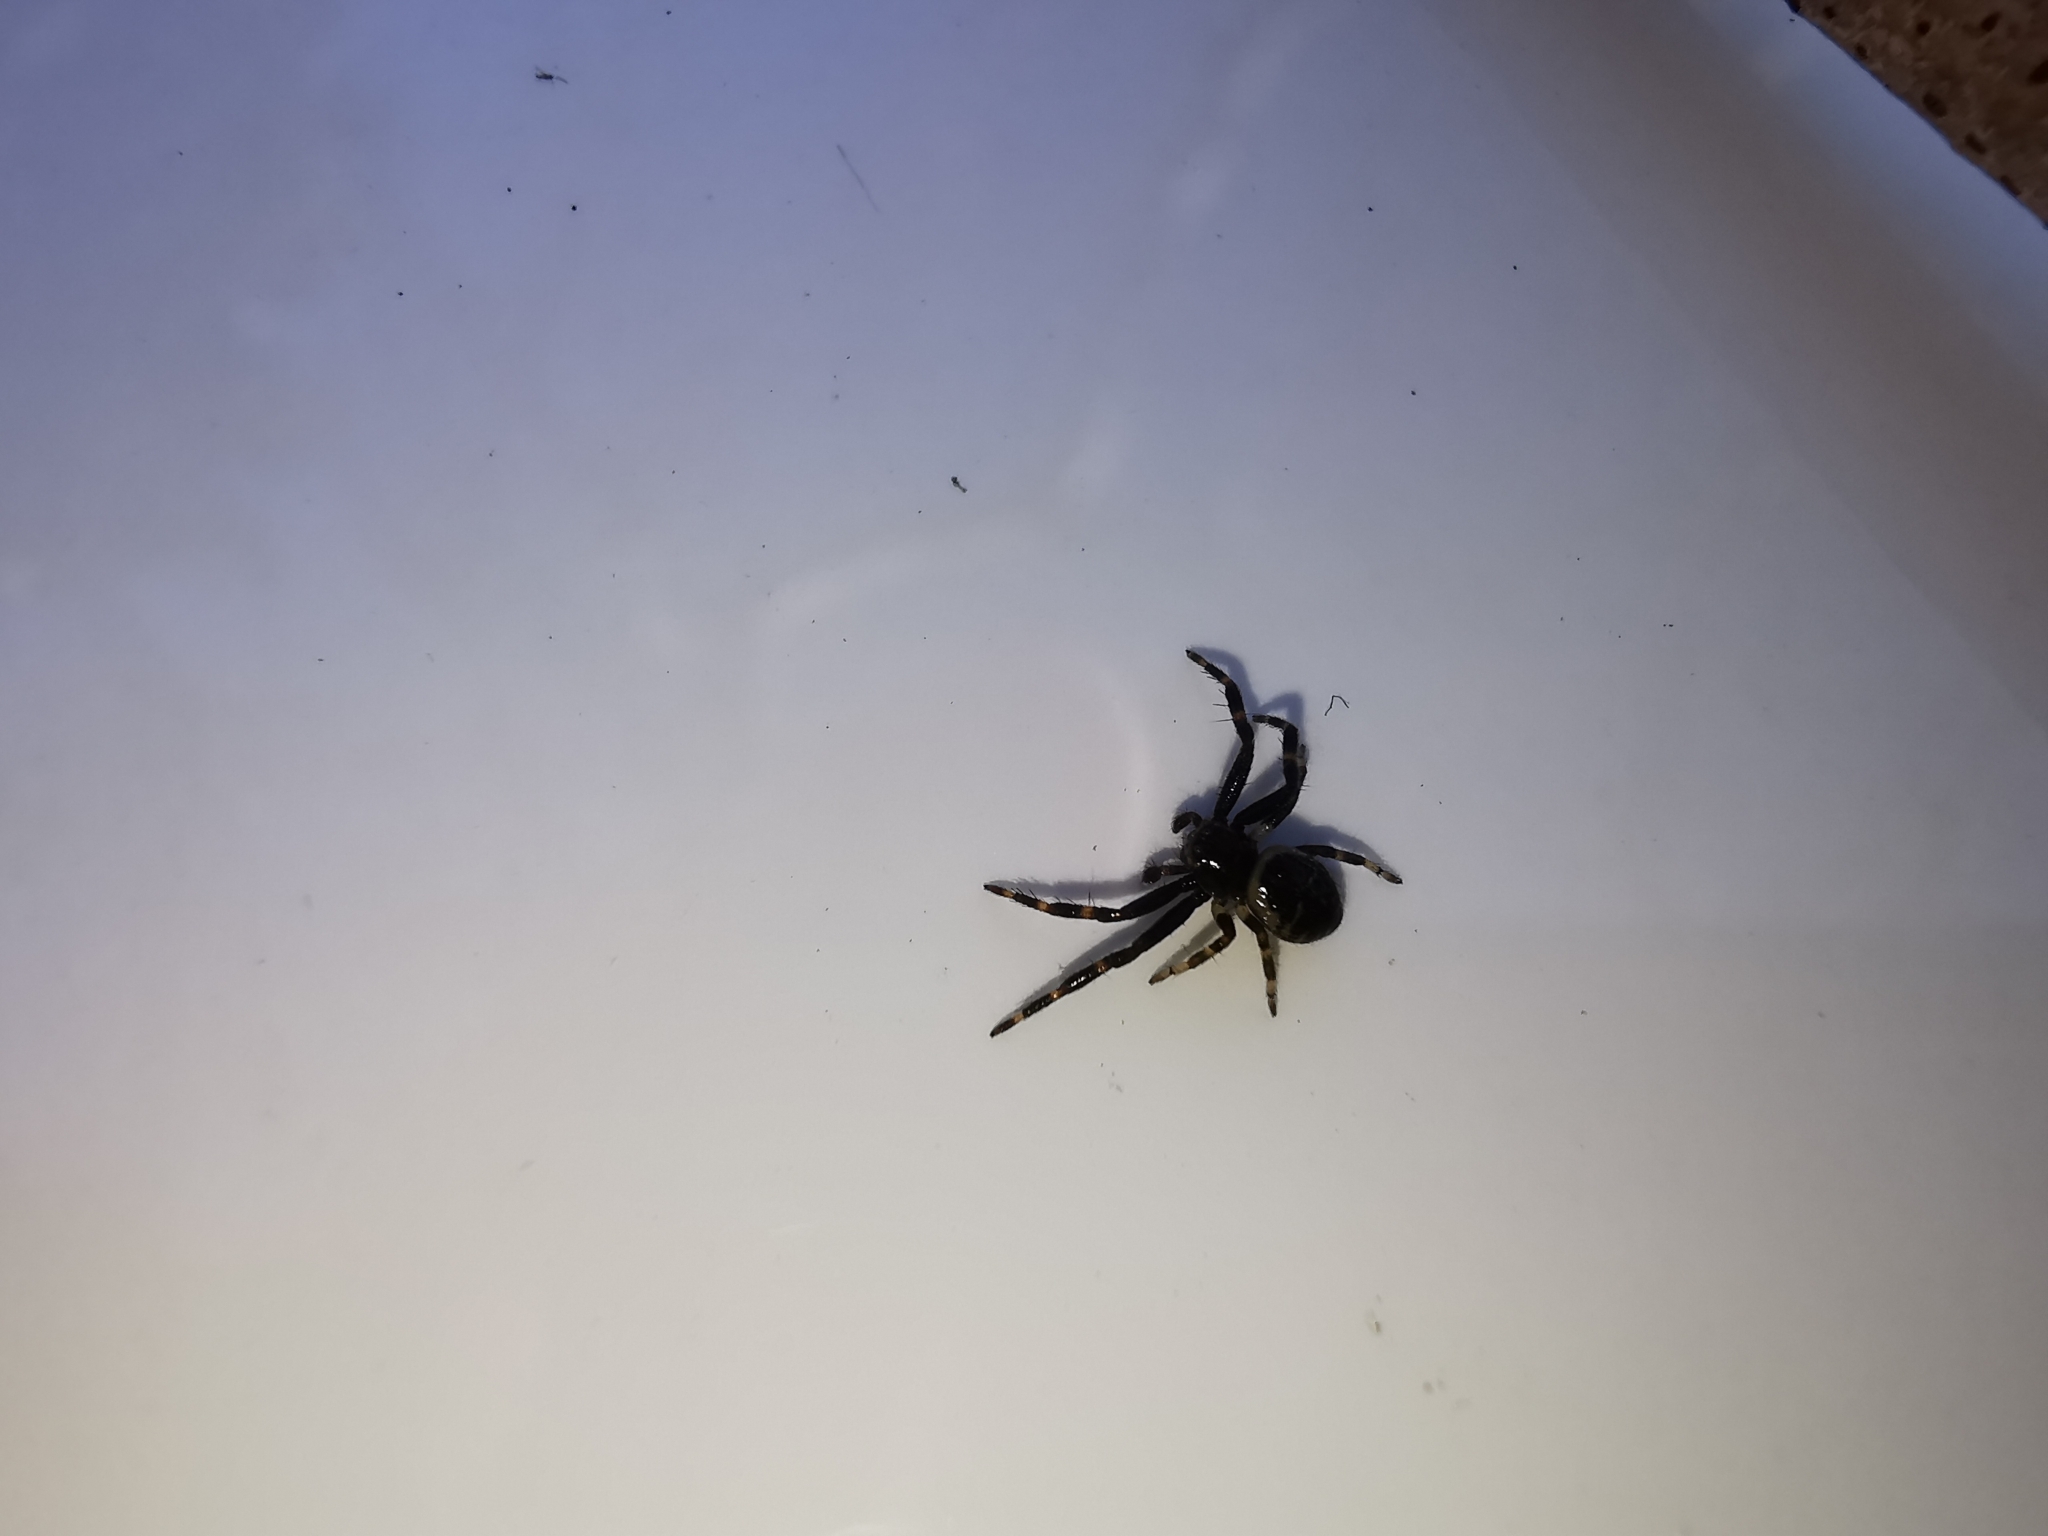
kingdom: Animalia
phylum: Arthropoda
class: Arachnida
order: Araneae
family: Thomisidae
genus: Synema
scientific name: Synema globosum
